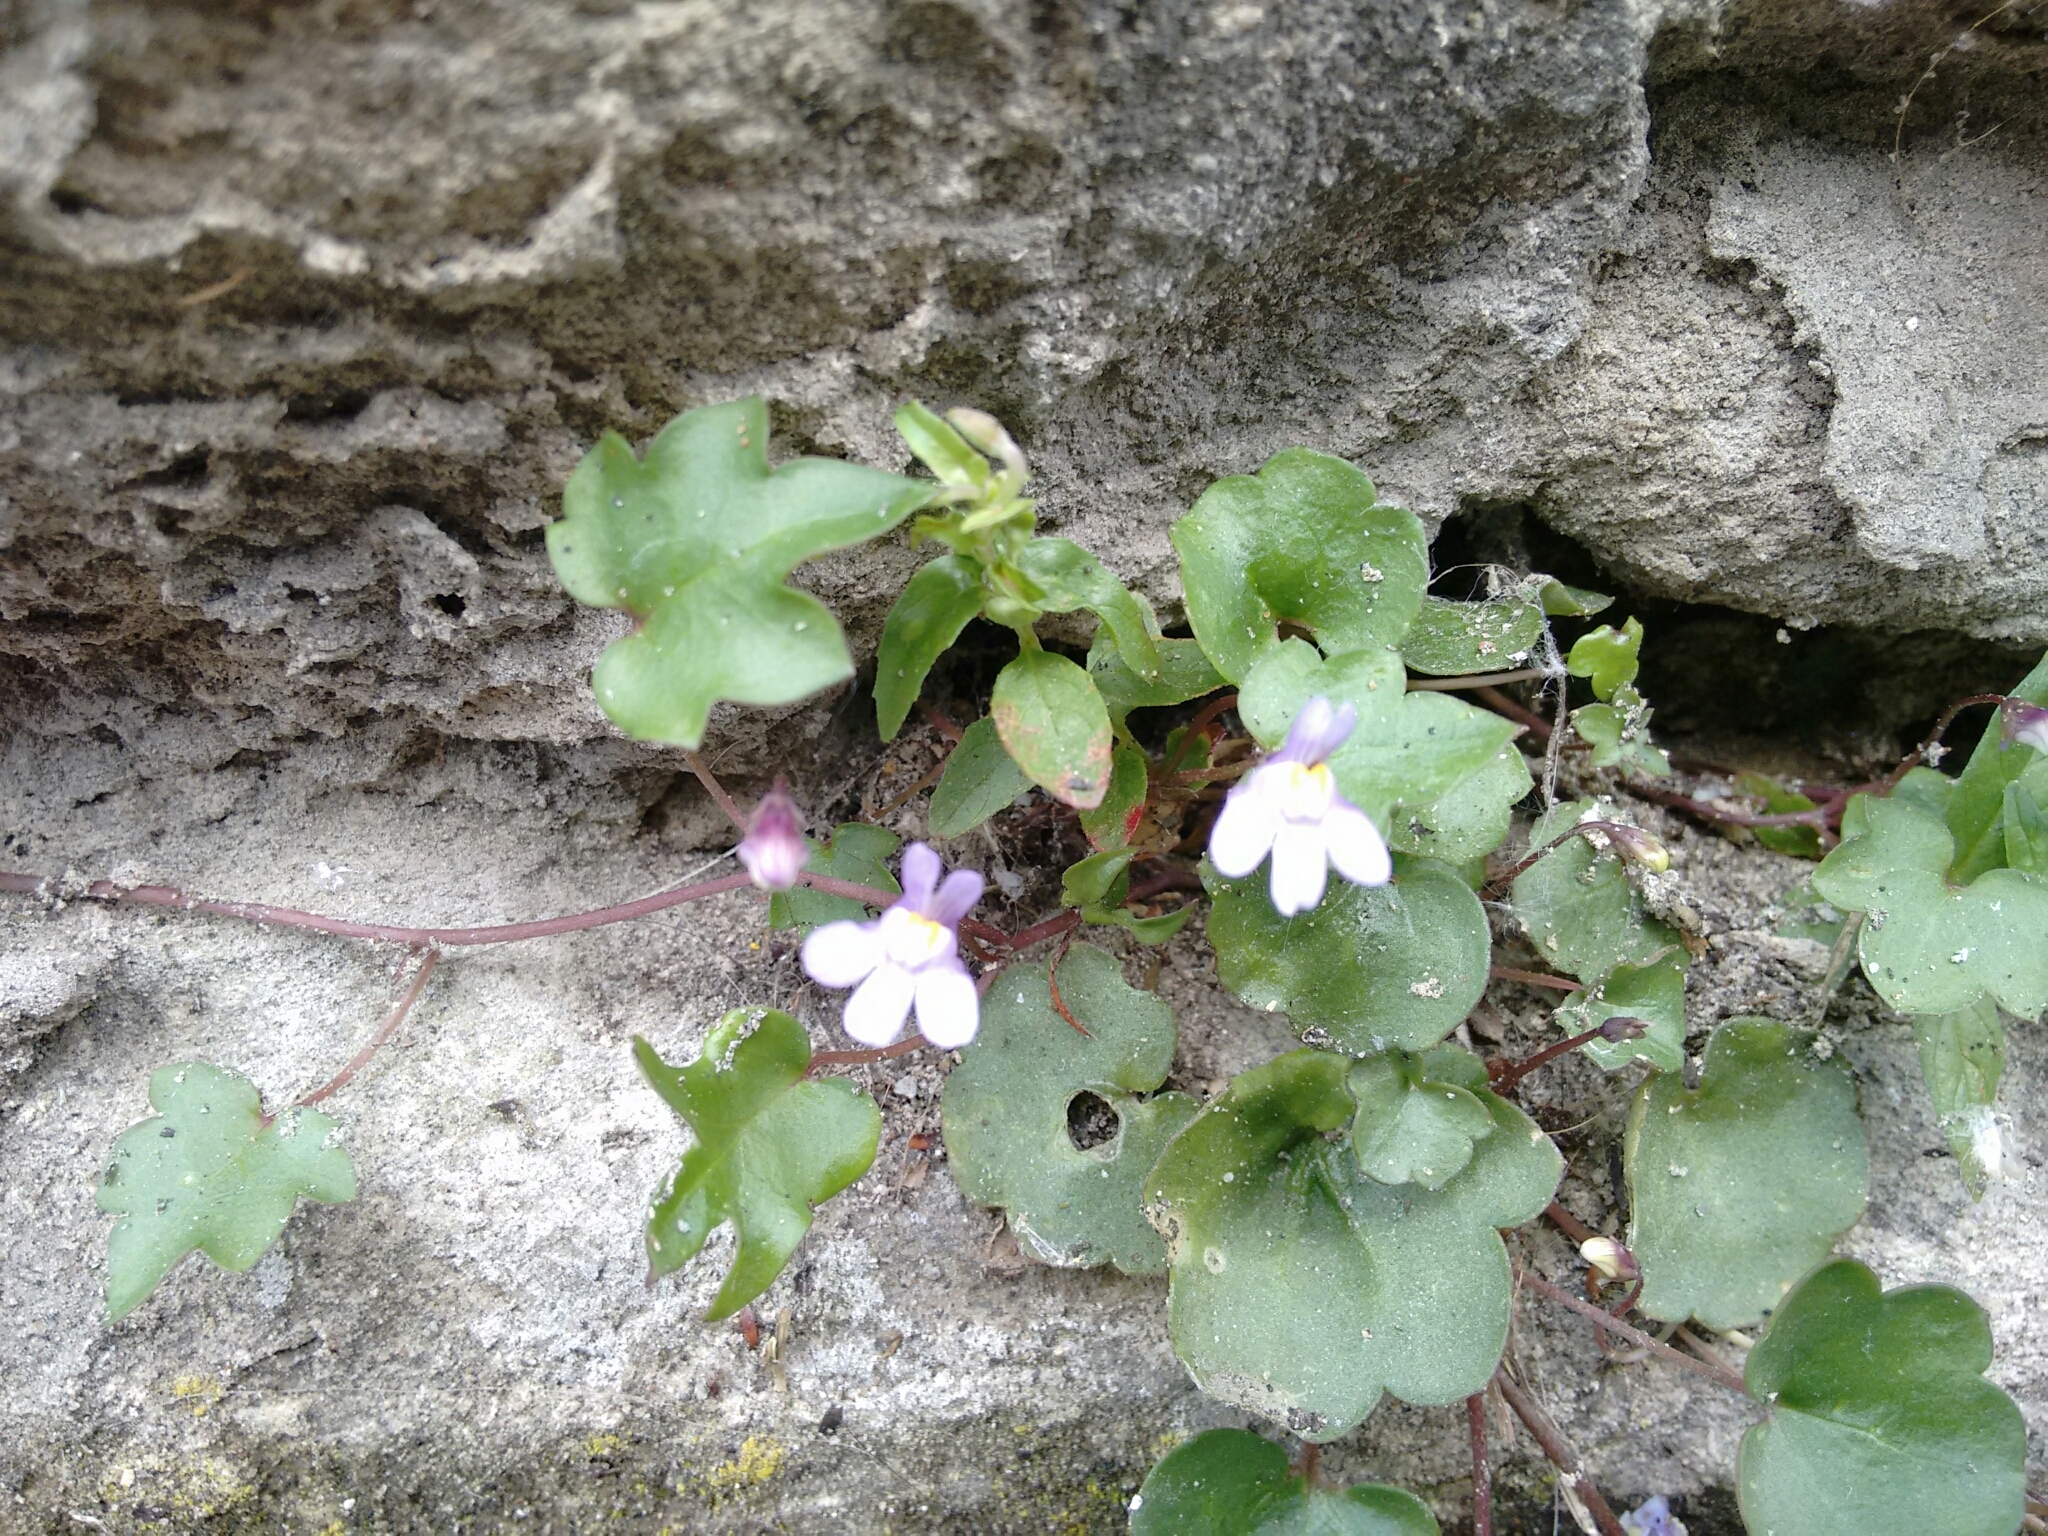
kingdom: Plantae
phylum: Tracheophyta
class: Magnoliopsida
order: Lamiales
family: Plantaginaceae
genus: Cymbalaria
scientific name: Cymbalaria muralis
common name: Ivy-leaved toadflax
